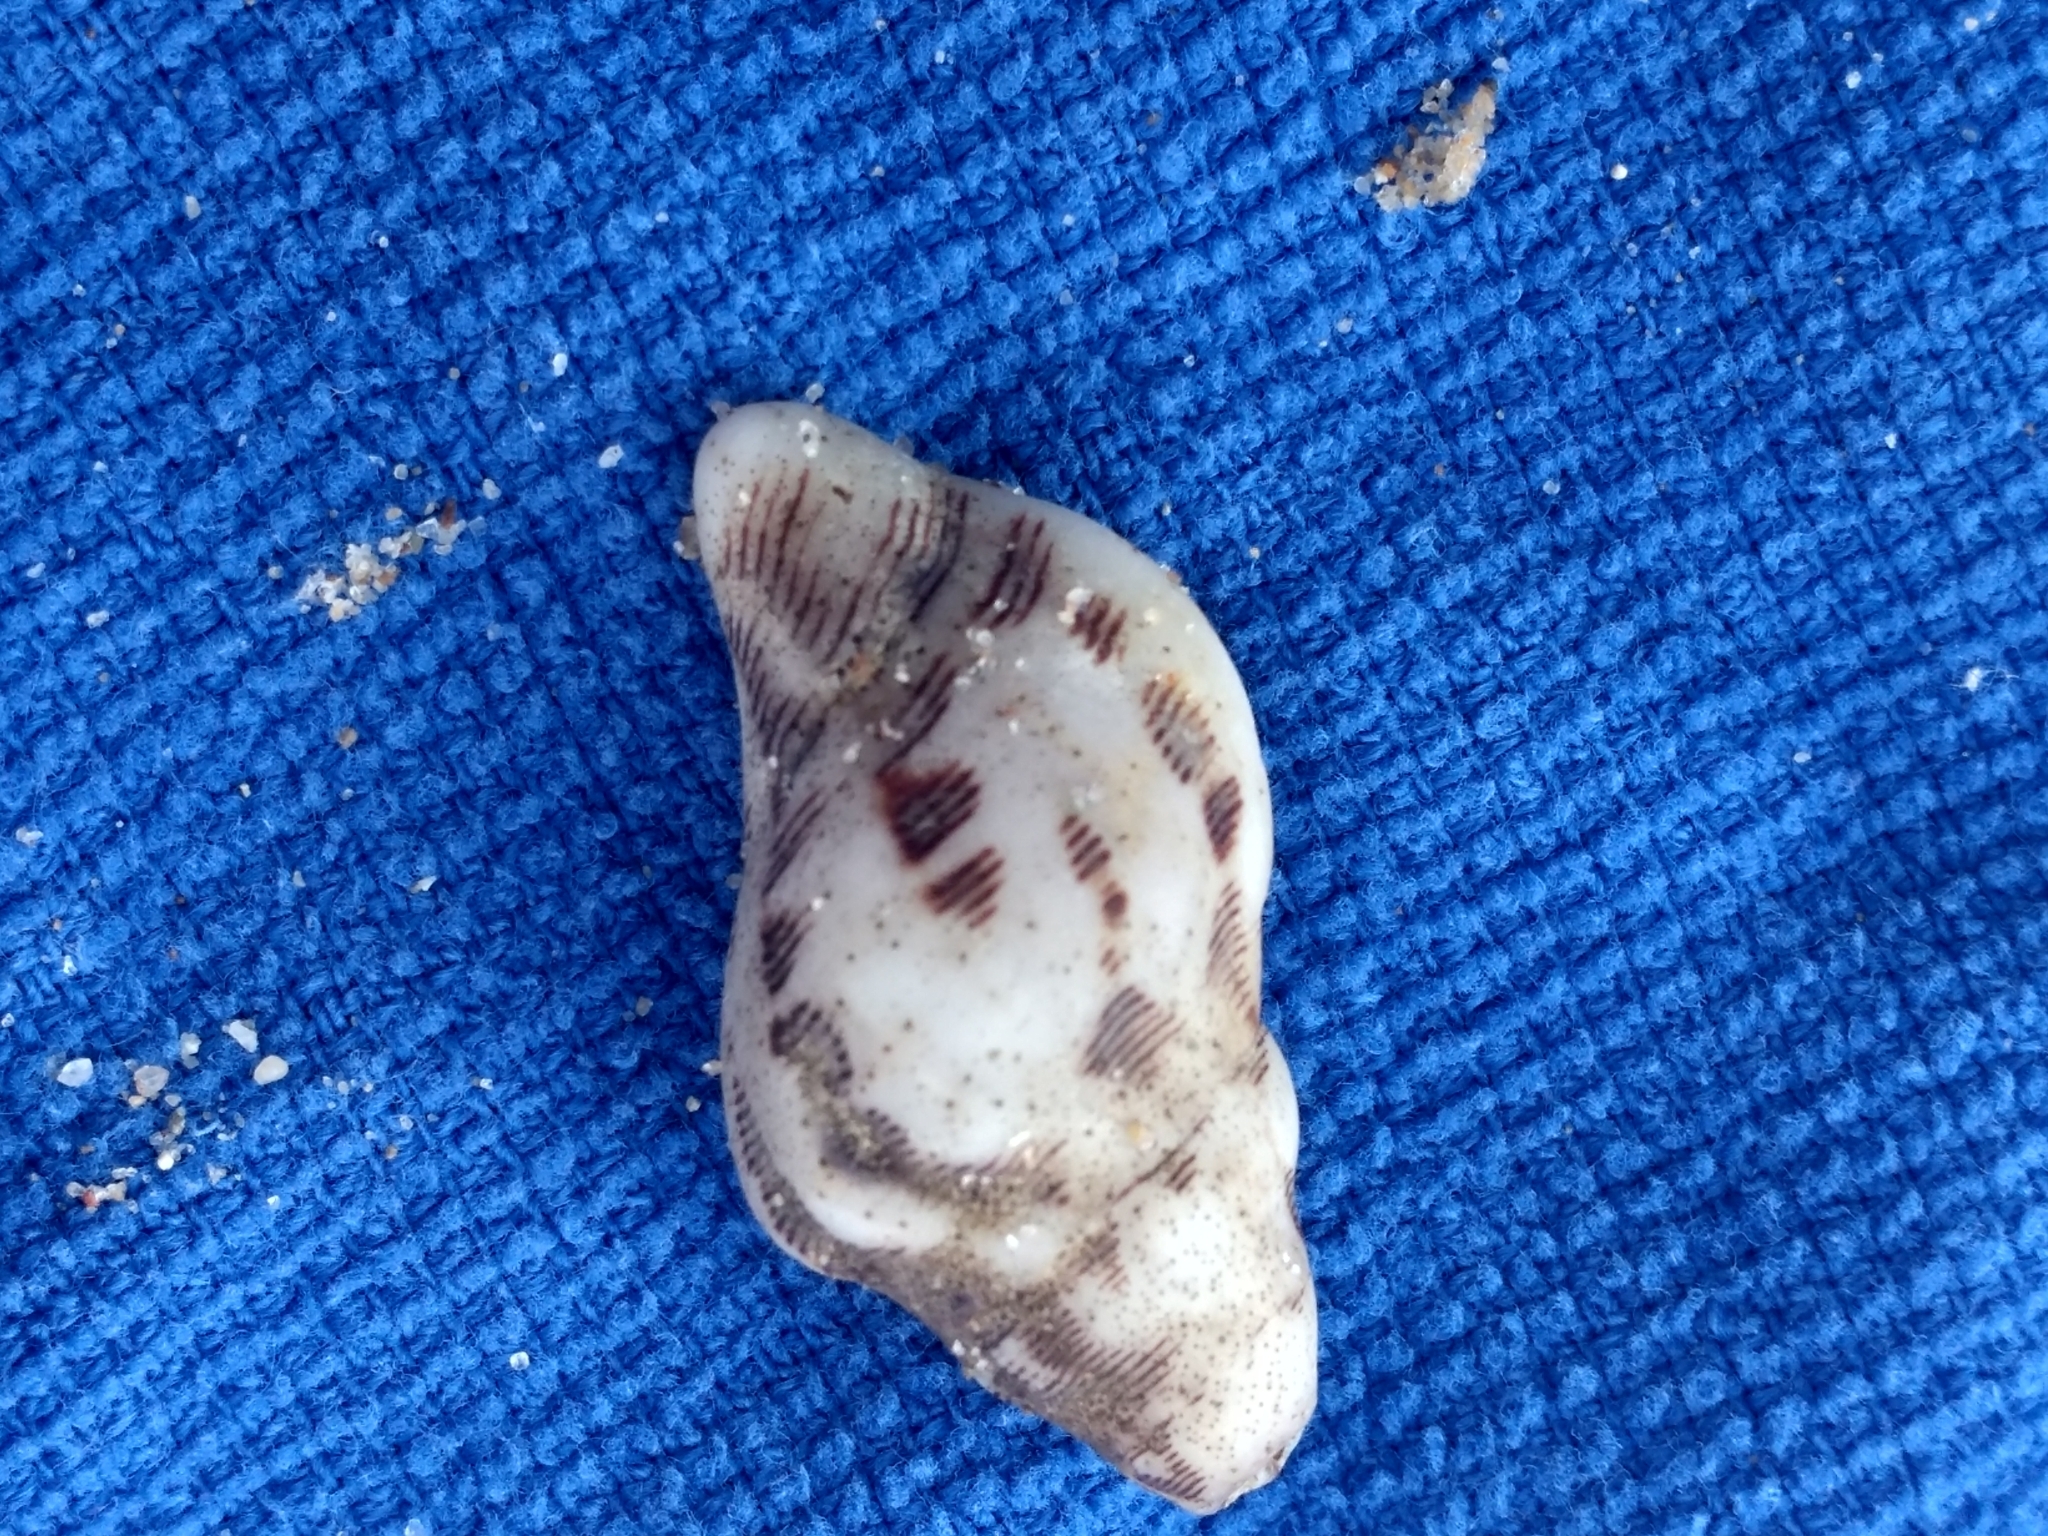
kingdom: Animalia
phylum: Mollusca
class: Gastropoda
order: Neogastropoda
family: Muricidae
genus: Roperia
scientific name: Roperia poulsoni
